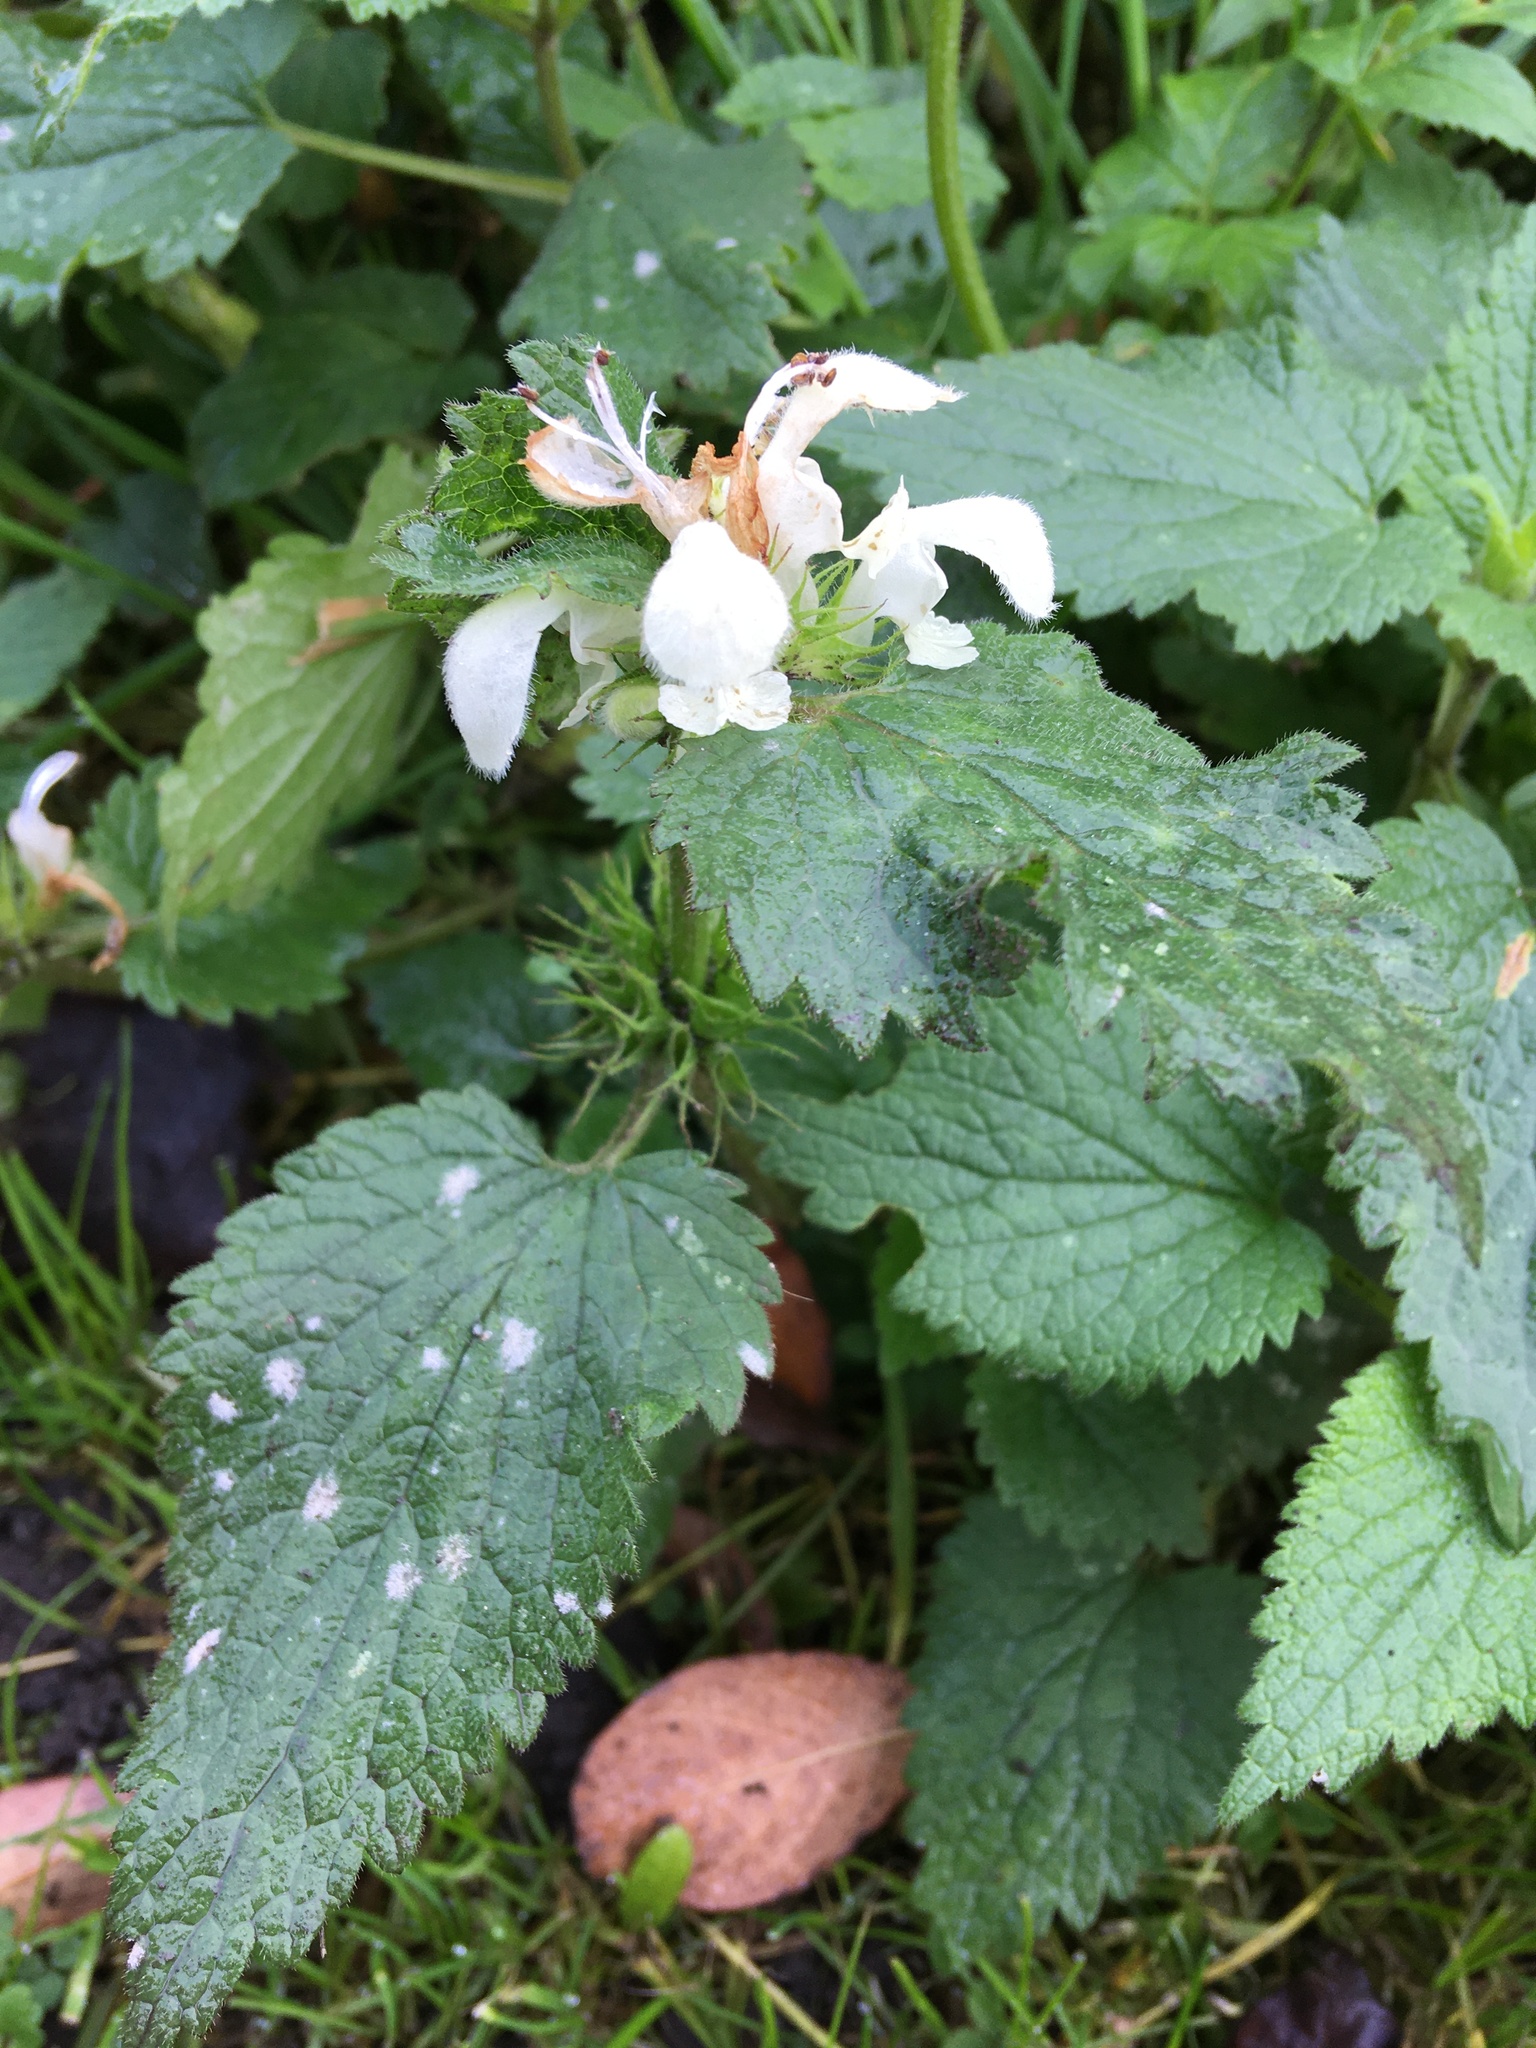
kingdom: Plantae
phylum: Tracheophyta
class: Magnoliopsida
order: Lamiales
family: Lamiaceae
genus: Lamium
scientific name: Lamium album
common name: White dead-nettle
